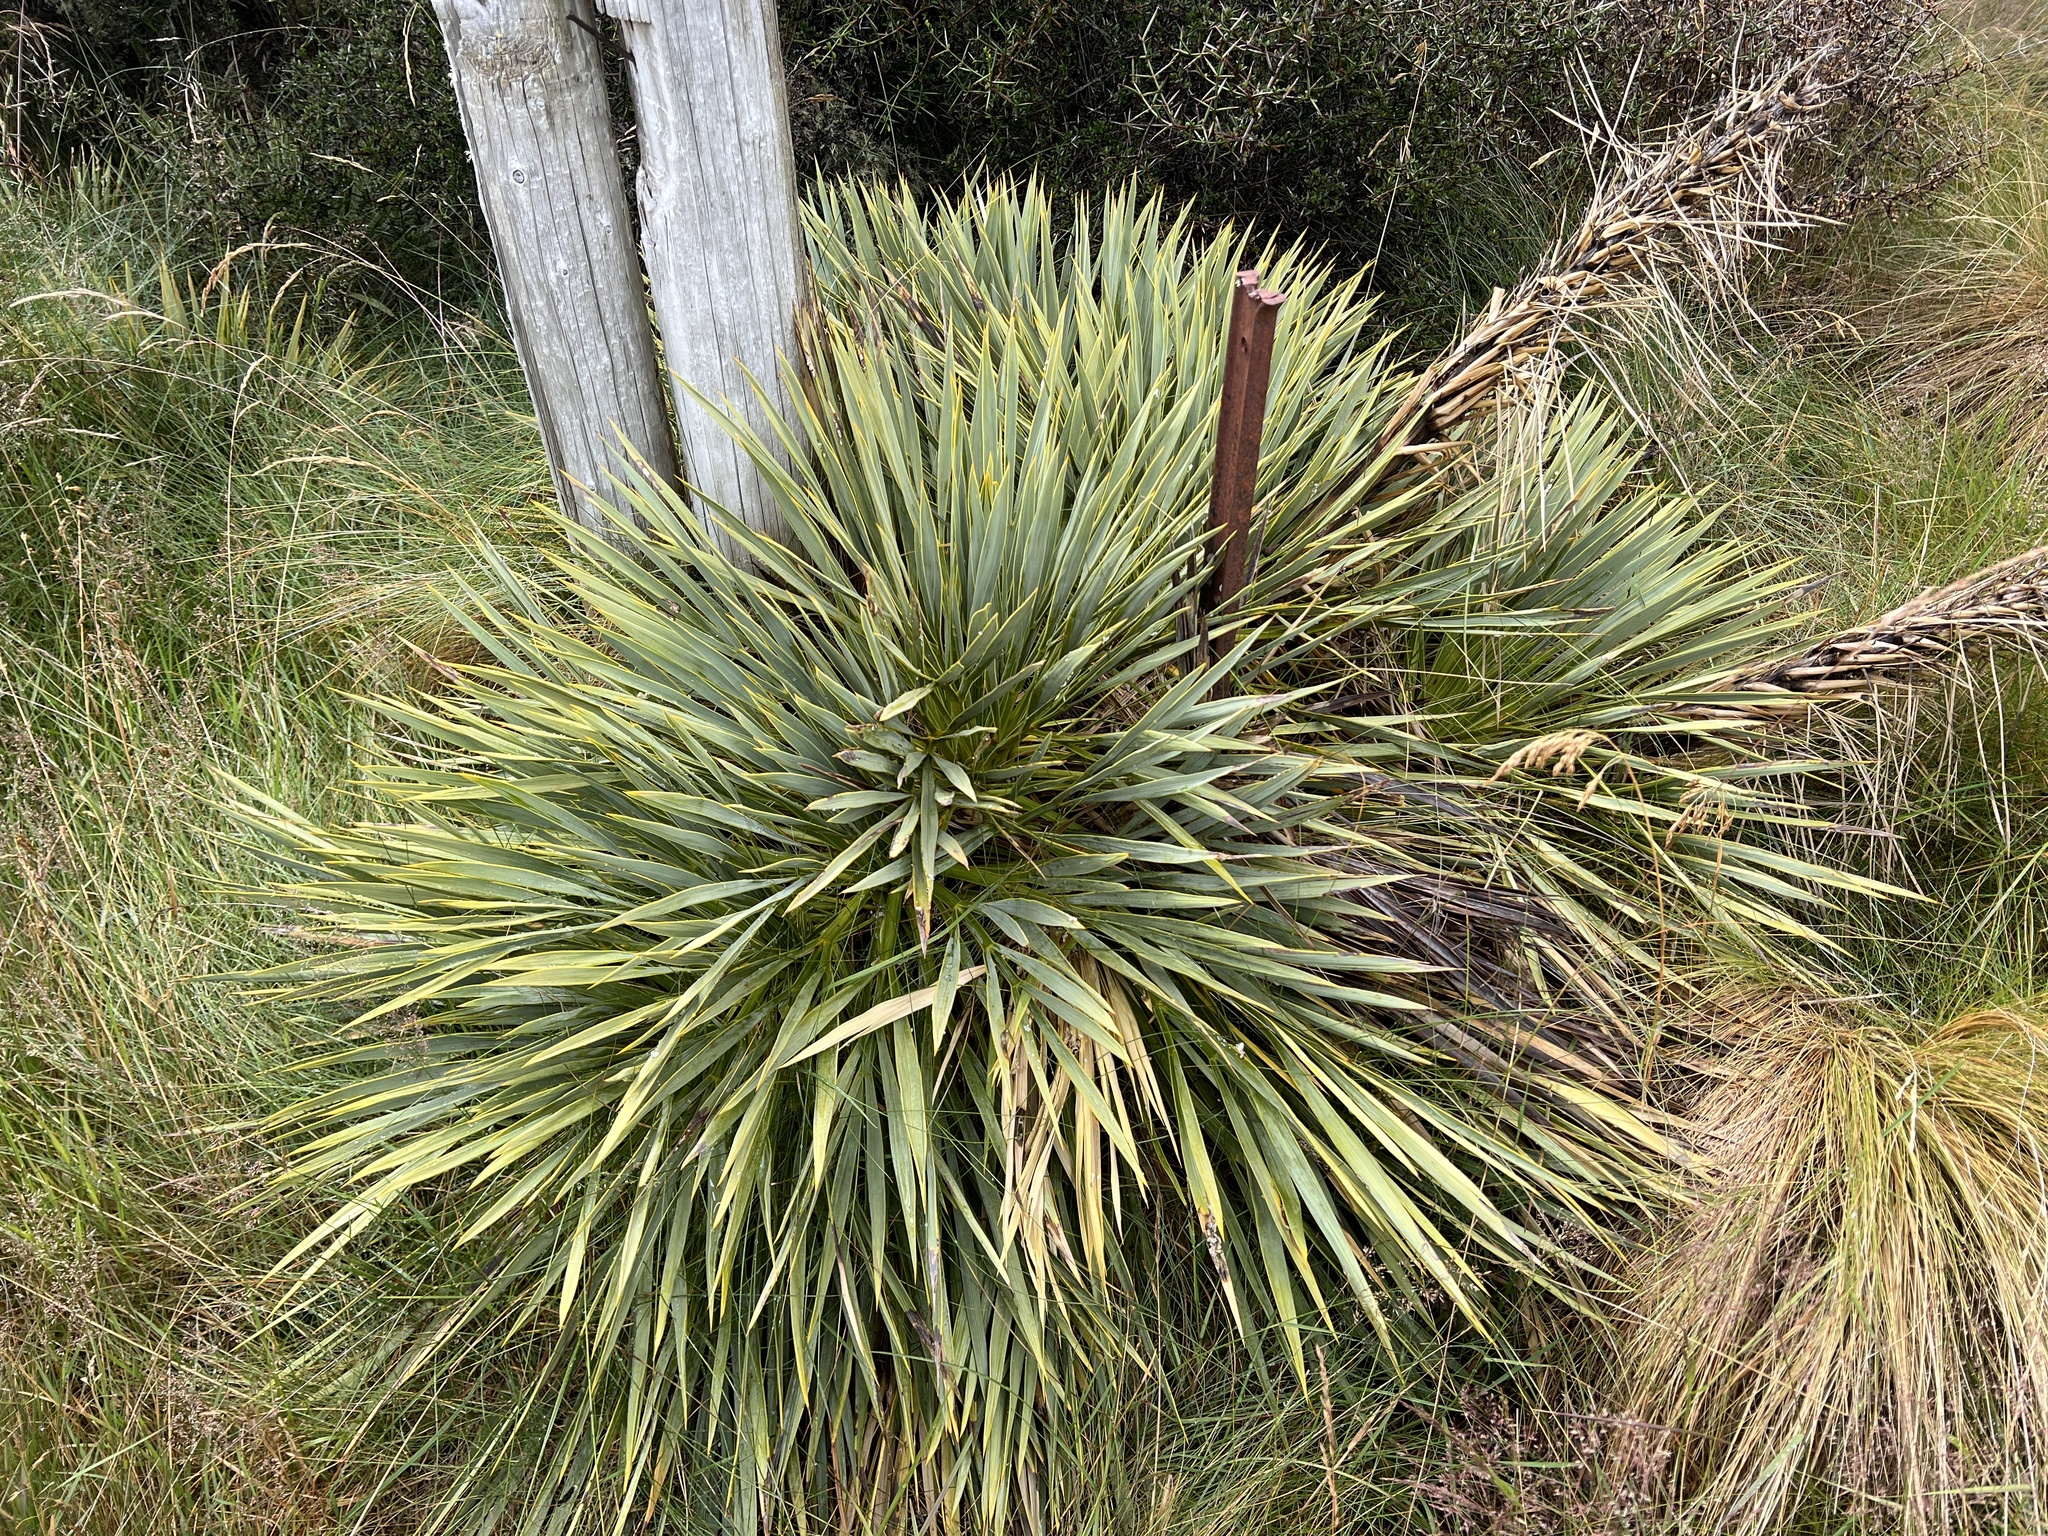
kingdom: Plantae
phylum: Tracheophyta
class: Magnoliopsida
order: Apiales
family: Apiaceae
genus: Aciphylla
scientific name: Aciphylla aurea
